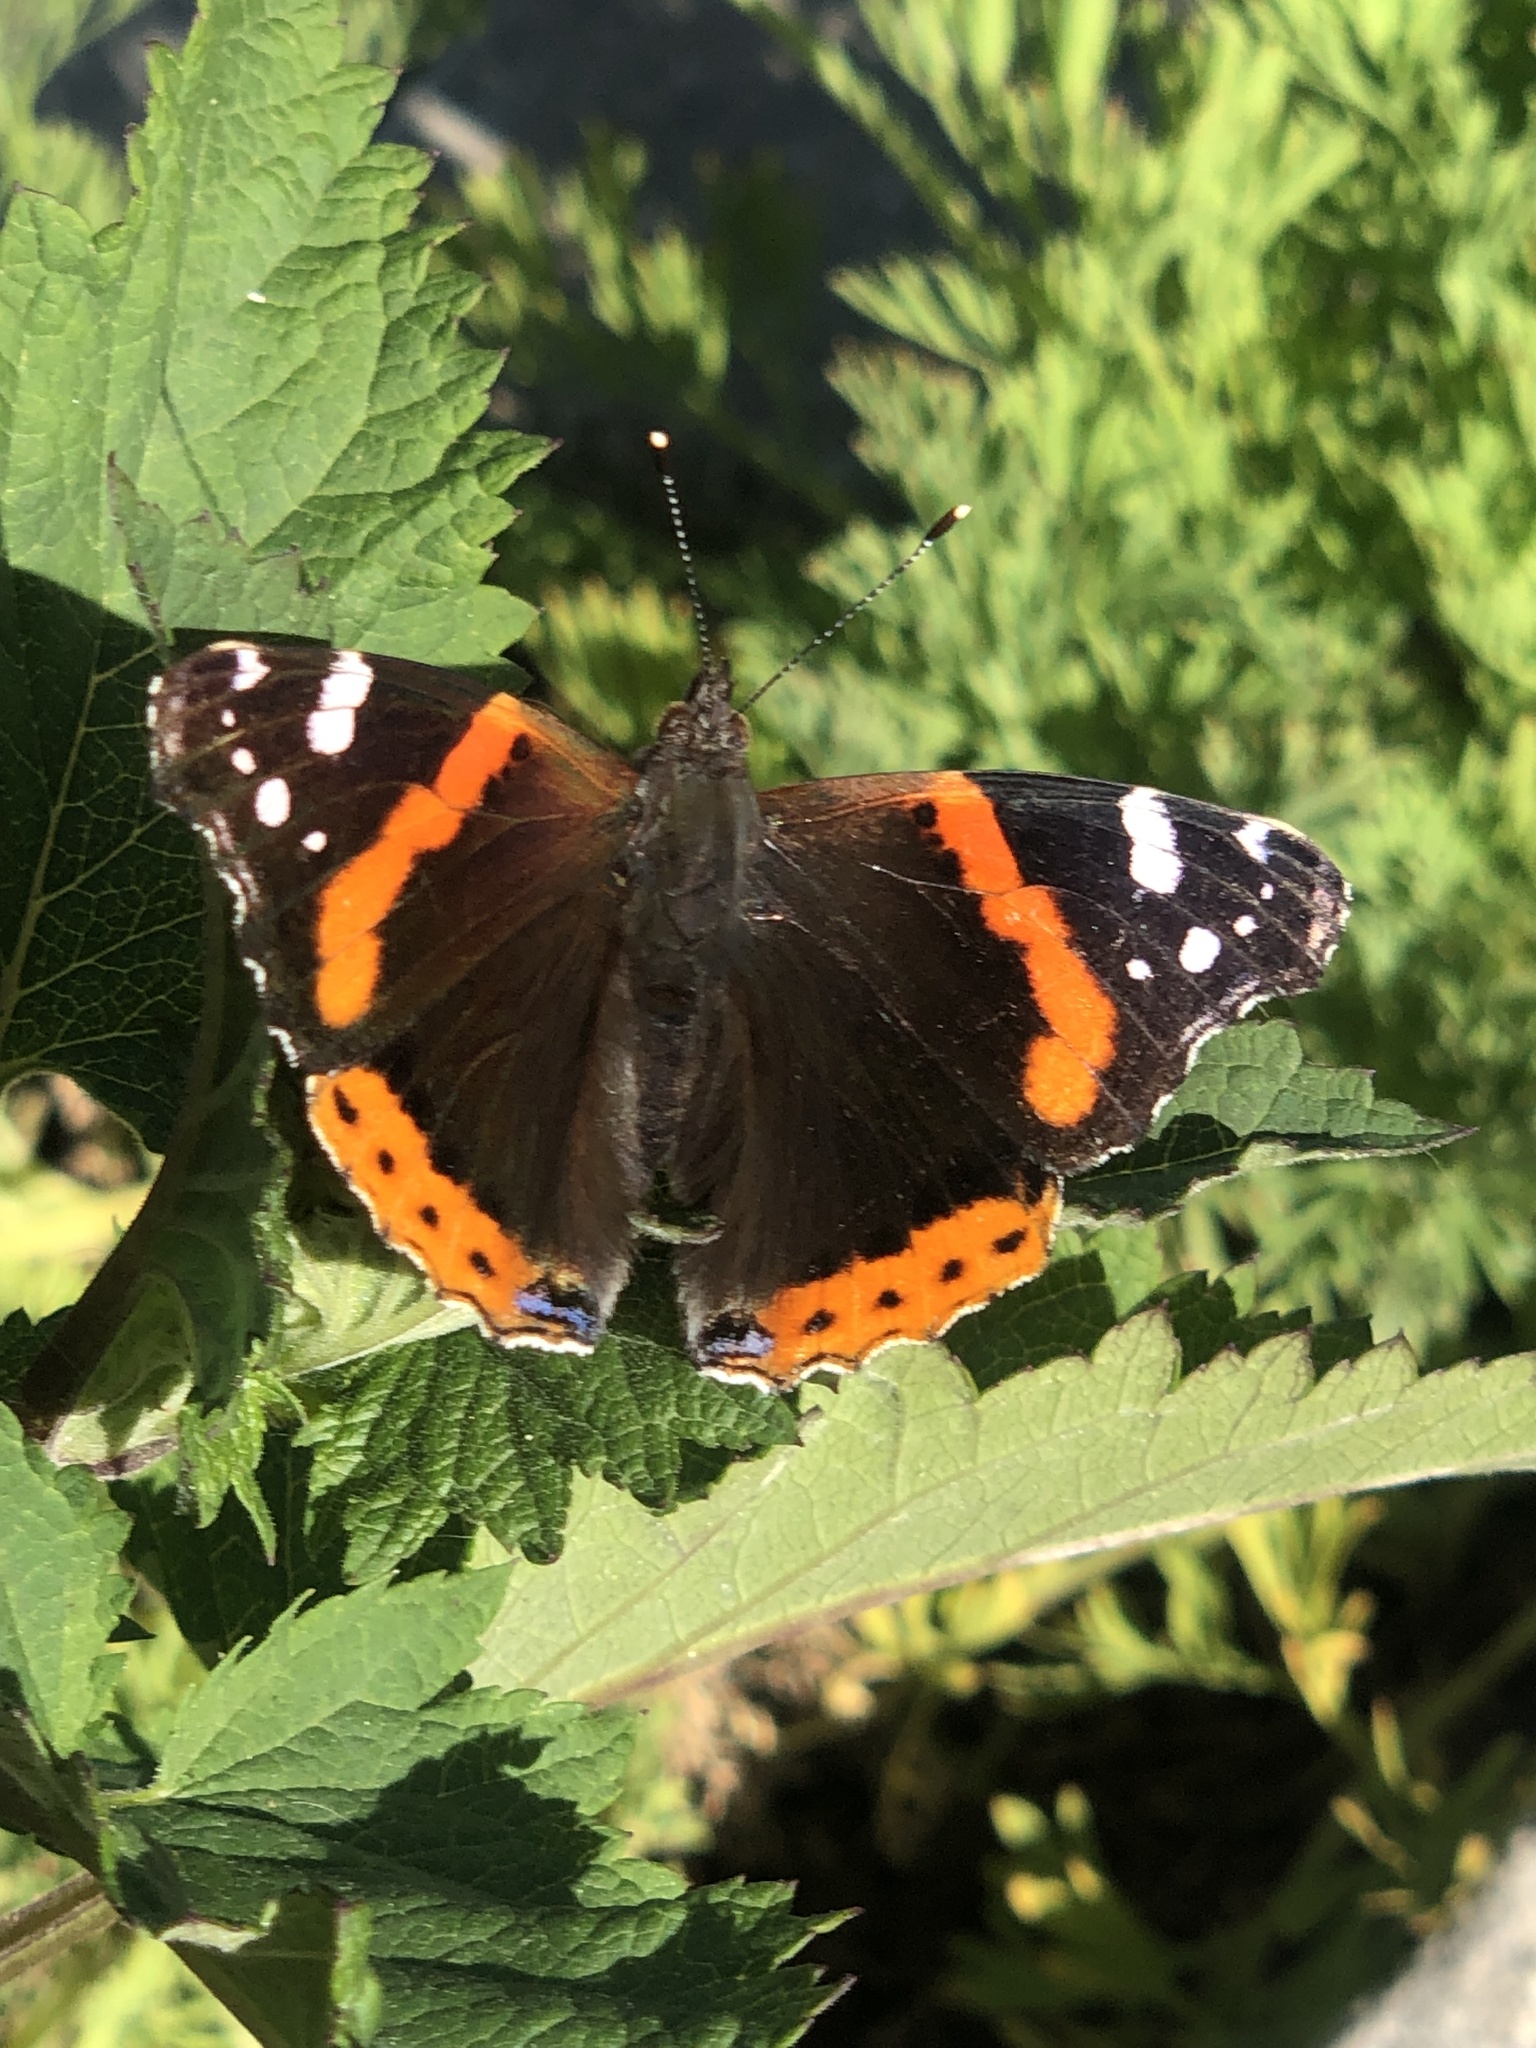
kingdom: Animalia
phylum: Arthropoda
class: Insecta
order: Lepidoptera
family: Nymphalidae
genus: Vanessa
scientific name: Vanessa atalanta
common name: Red admiral
